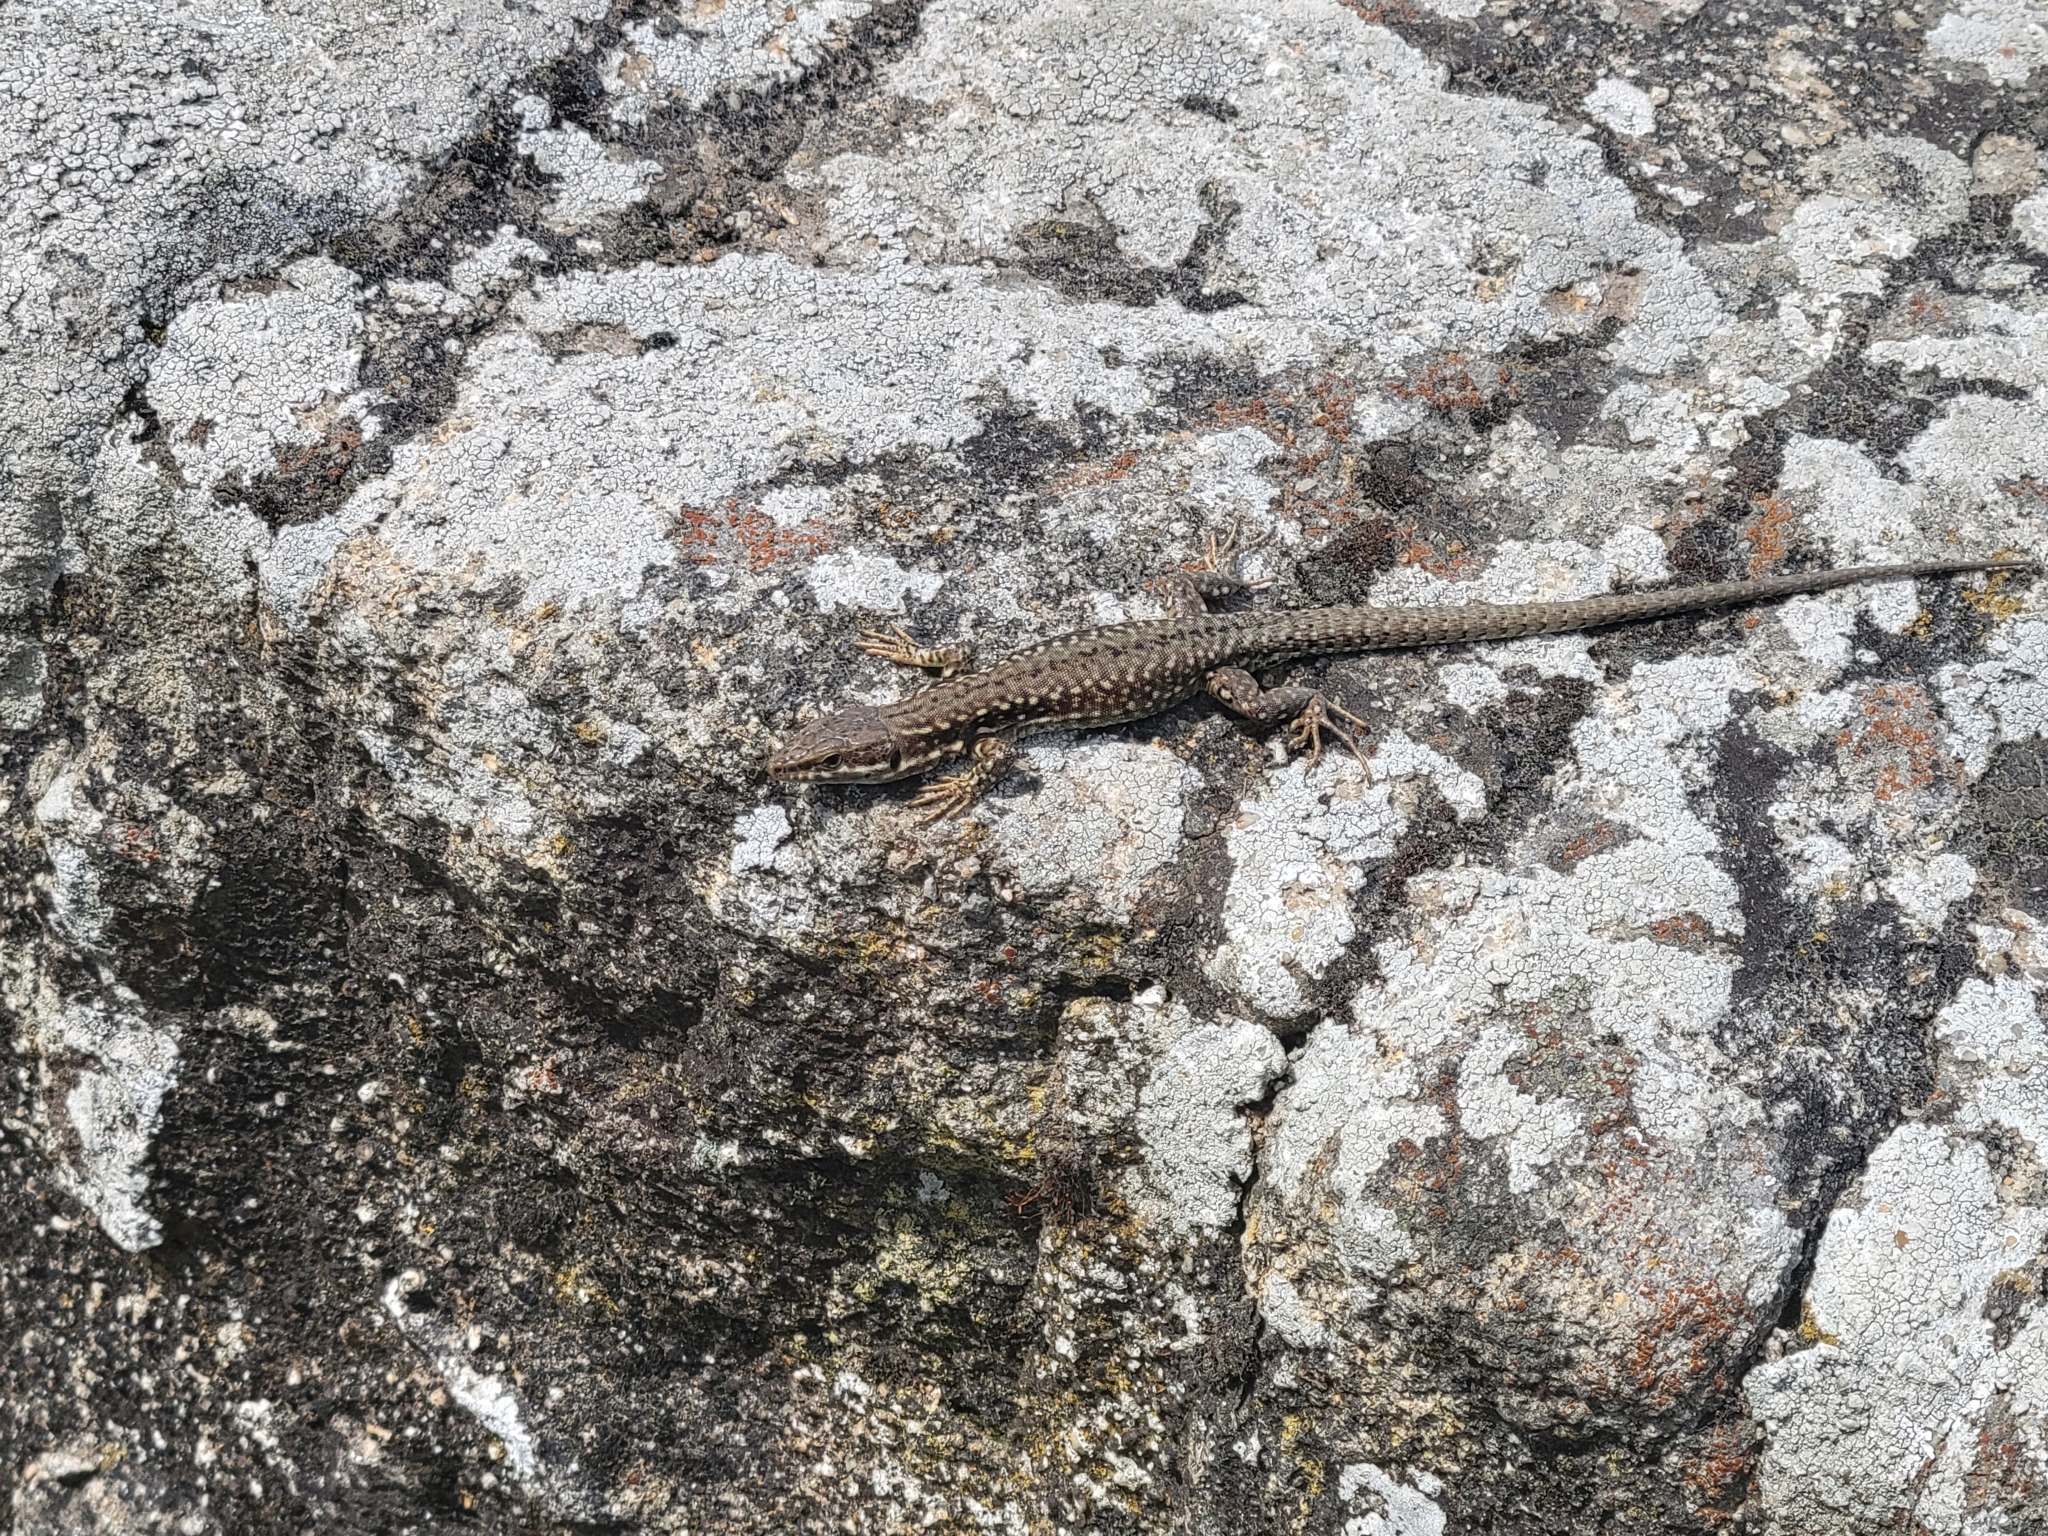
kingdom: Animalia
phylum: Chordata
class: Squamata
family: Lacertidae
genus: Podarcis
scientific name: Podarcis muralis
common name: Common wall lizard
